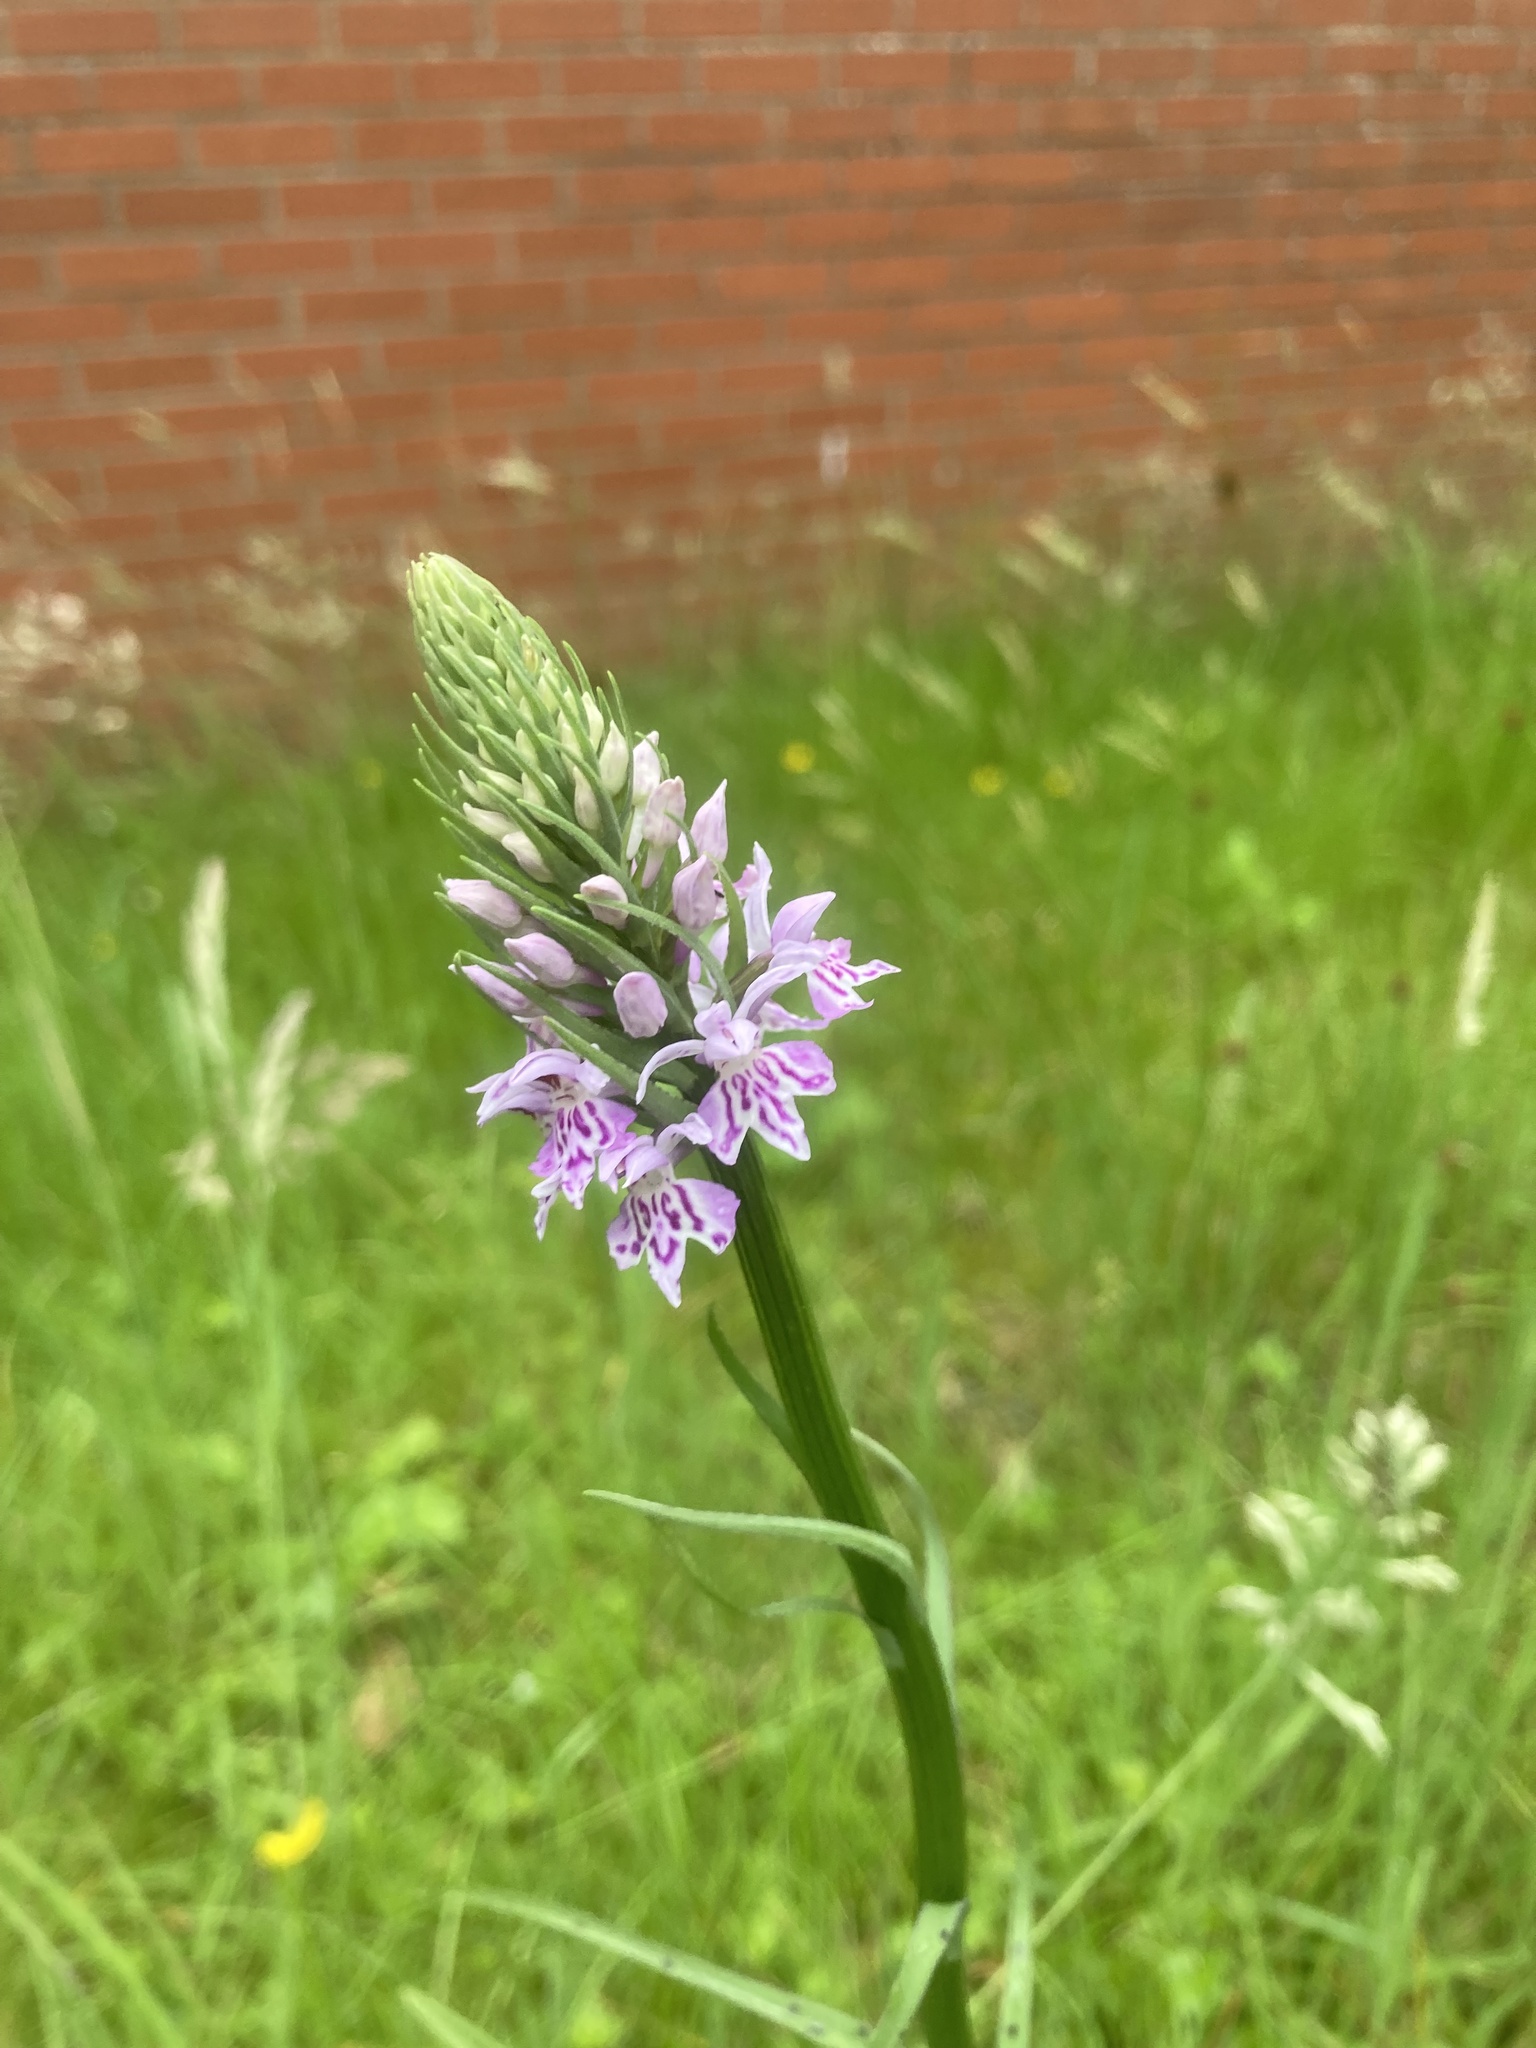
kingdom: Plantae
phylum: Tracheophyta
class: Liliopsida
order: Asparagales
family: Orchidaceae
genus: Dactylorhiza
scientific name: Dactylorhiza maculata
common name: Heath spotted-orchid
